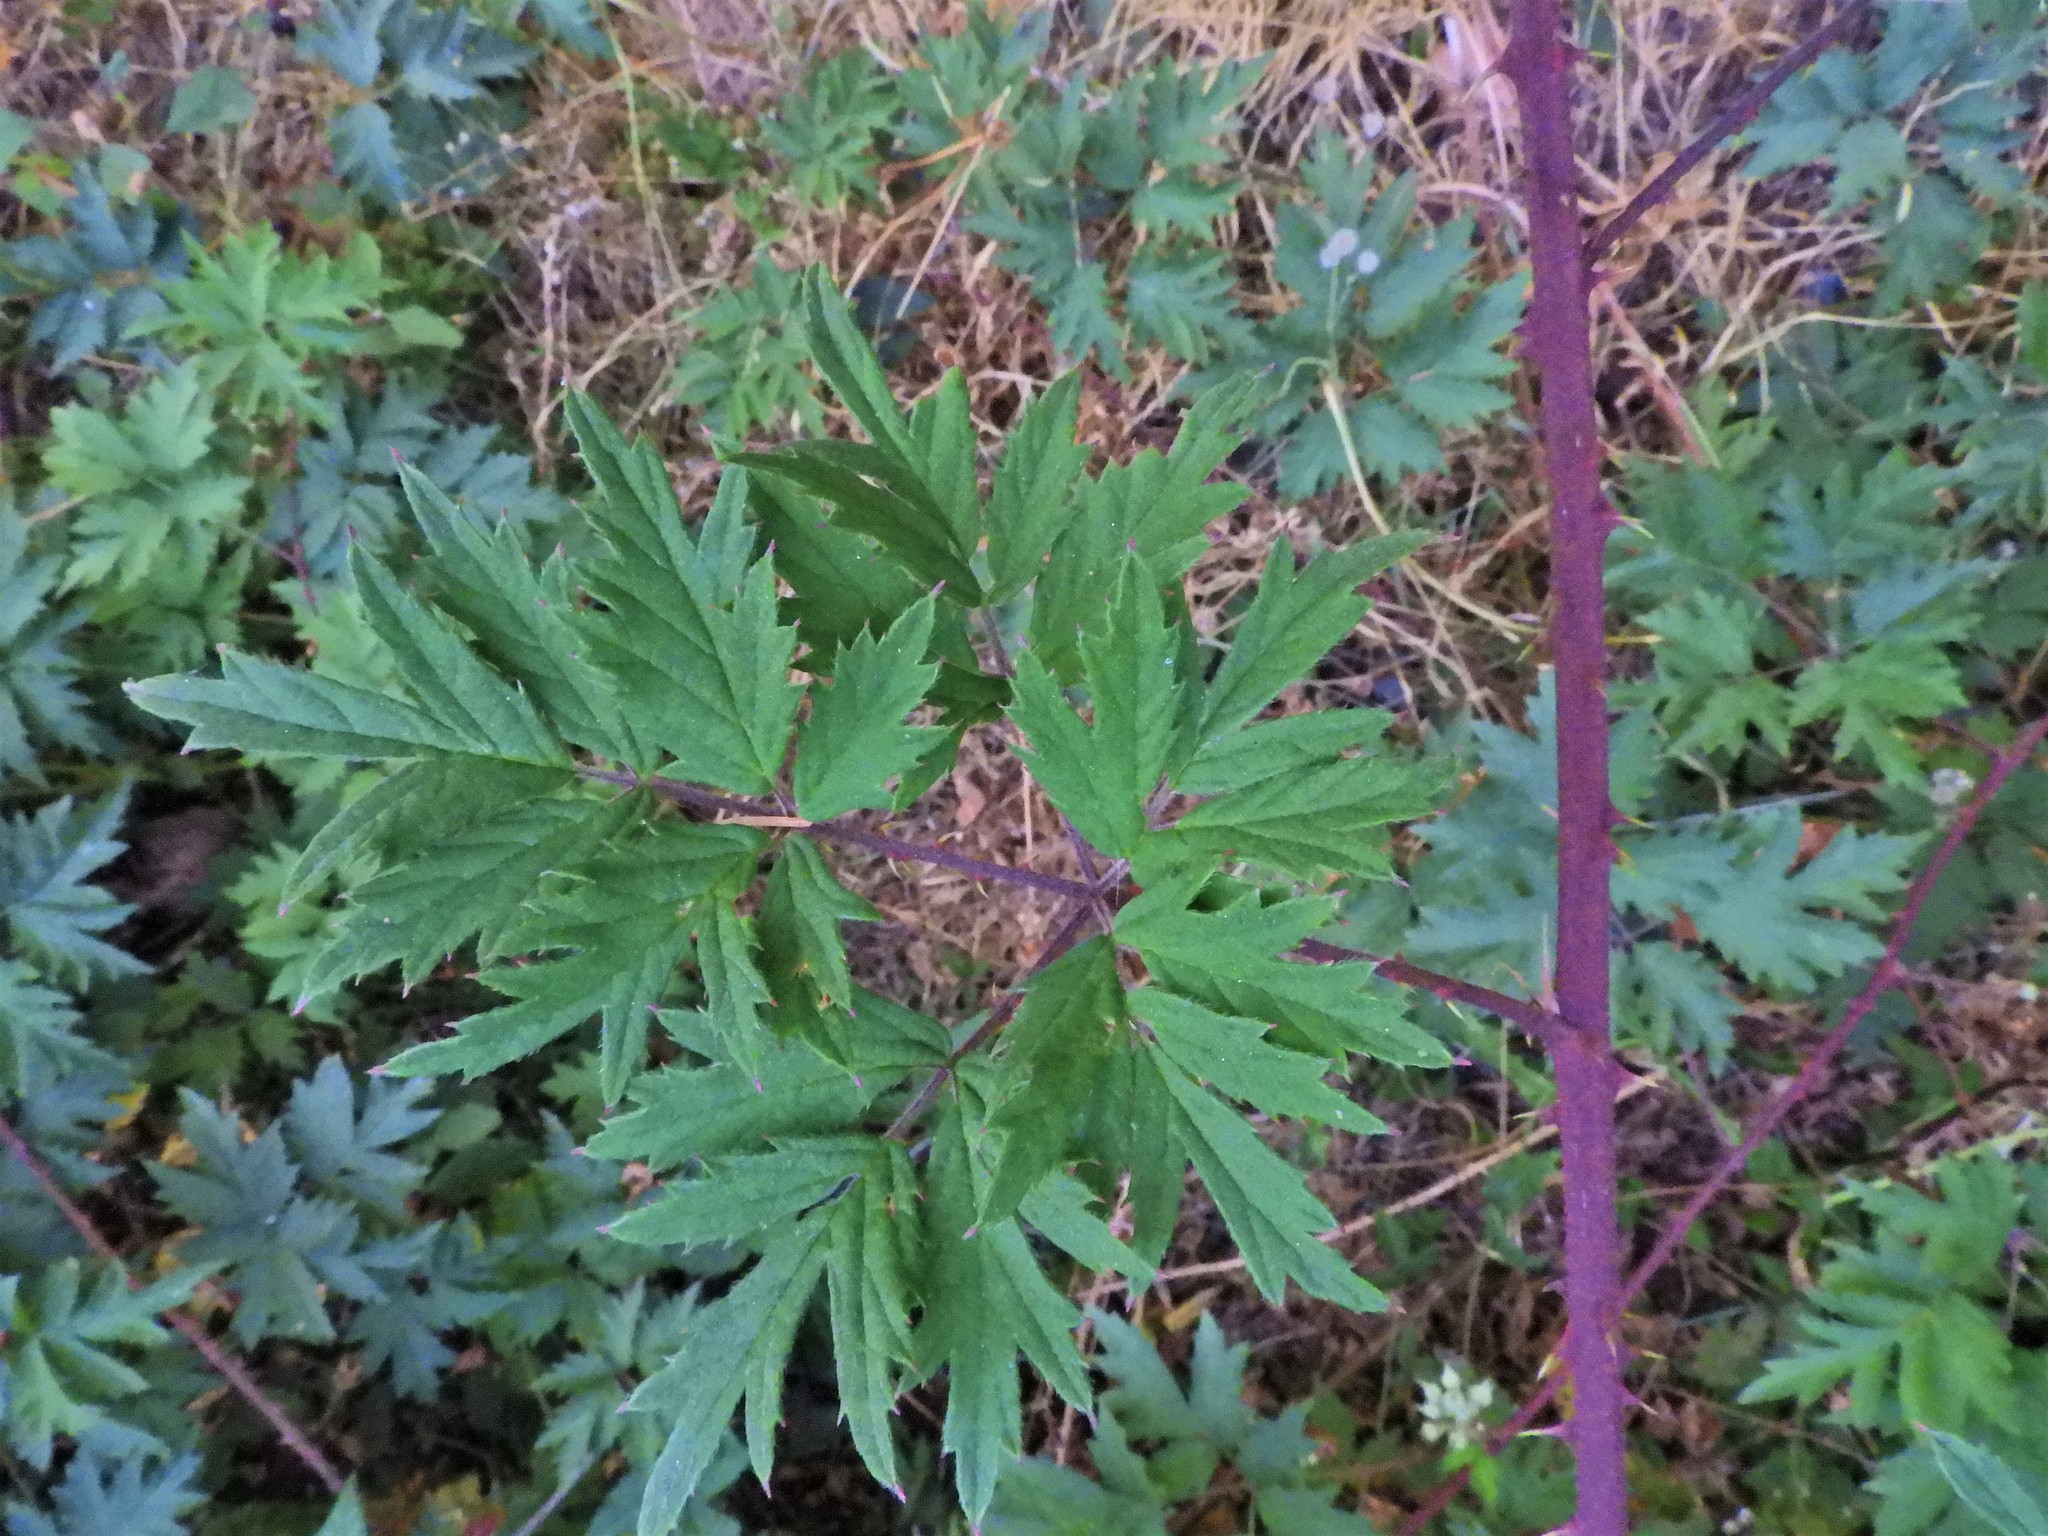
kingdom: Plantae
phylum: Tracheophyta
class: Magnoliopsida
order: Rosales
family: Rosaceae
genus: Rubus
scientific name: Rubus laciniatus
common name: Evergreen blackberry
